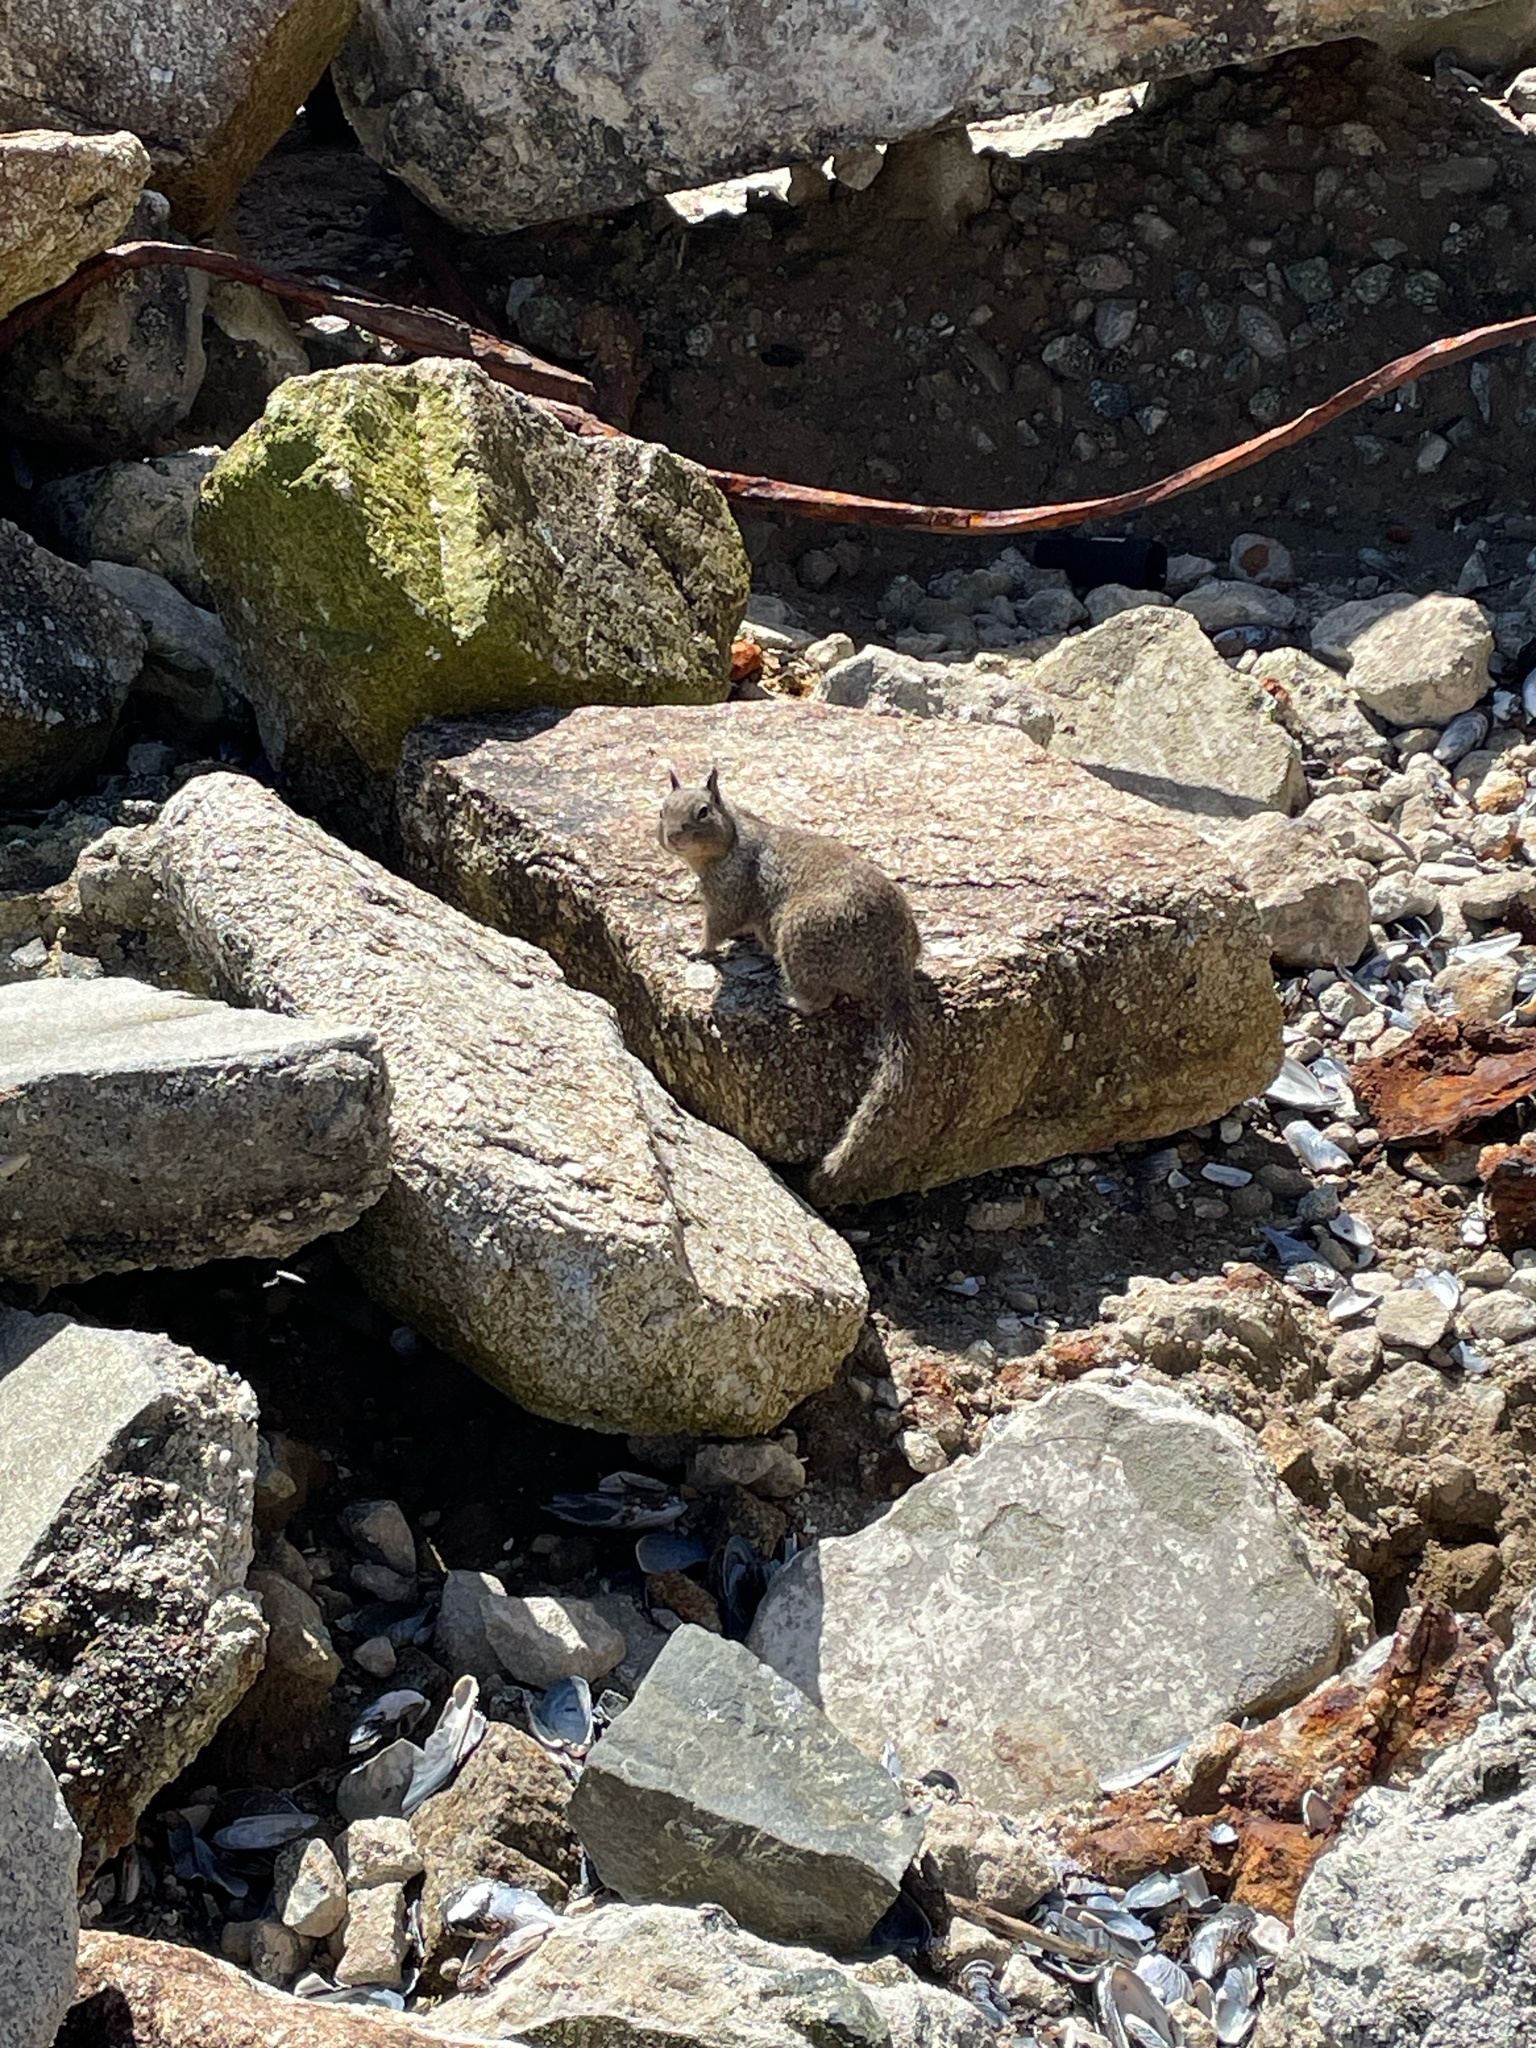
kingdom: Animalia
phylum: Chordata
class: Mammalia
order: Rodentia
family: Sciuridae
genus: Otospermophilus
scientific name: Otospermophilus beecheyi
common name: California ground squirrel
